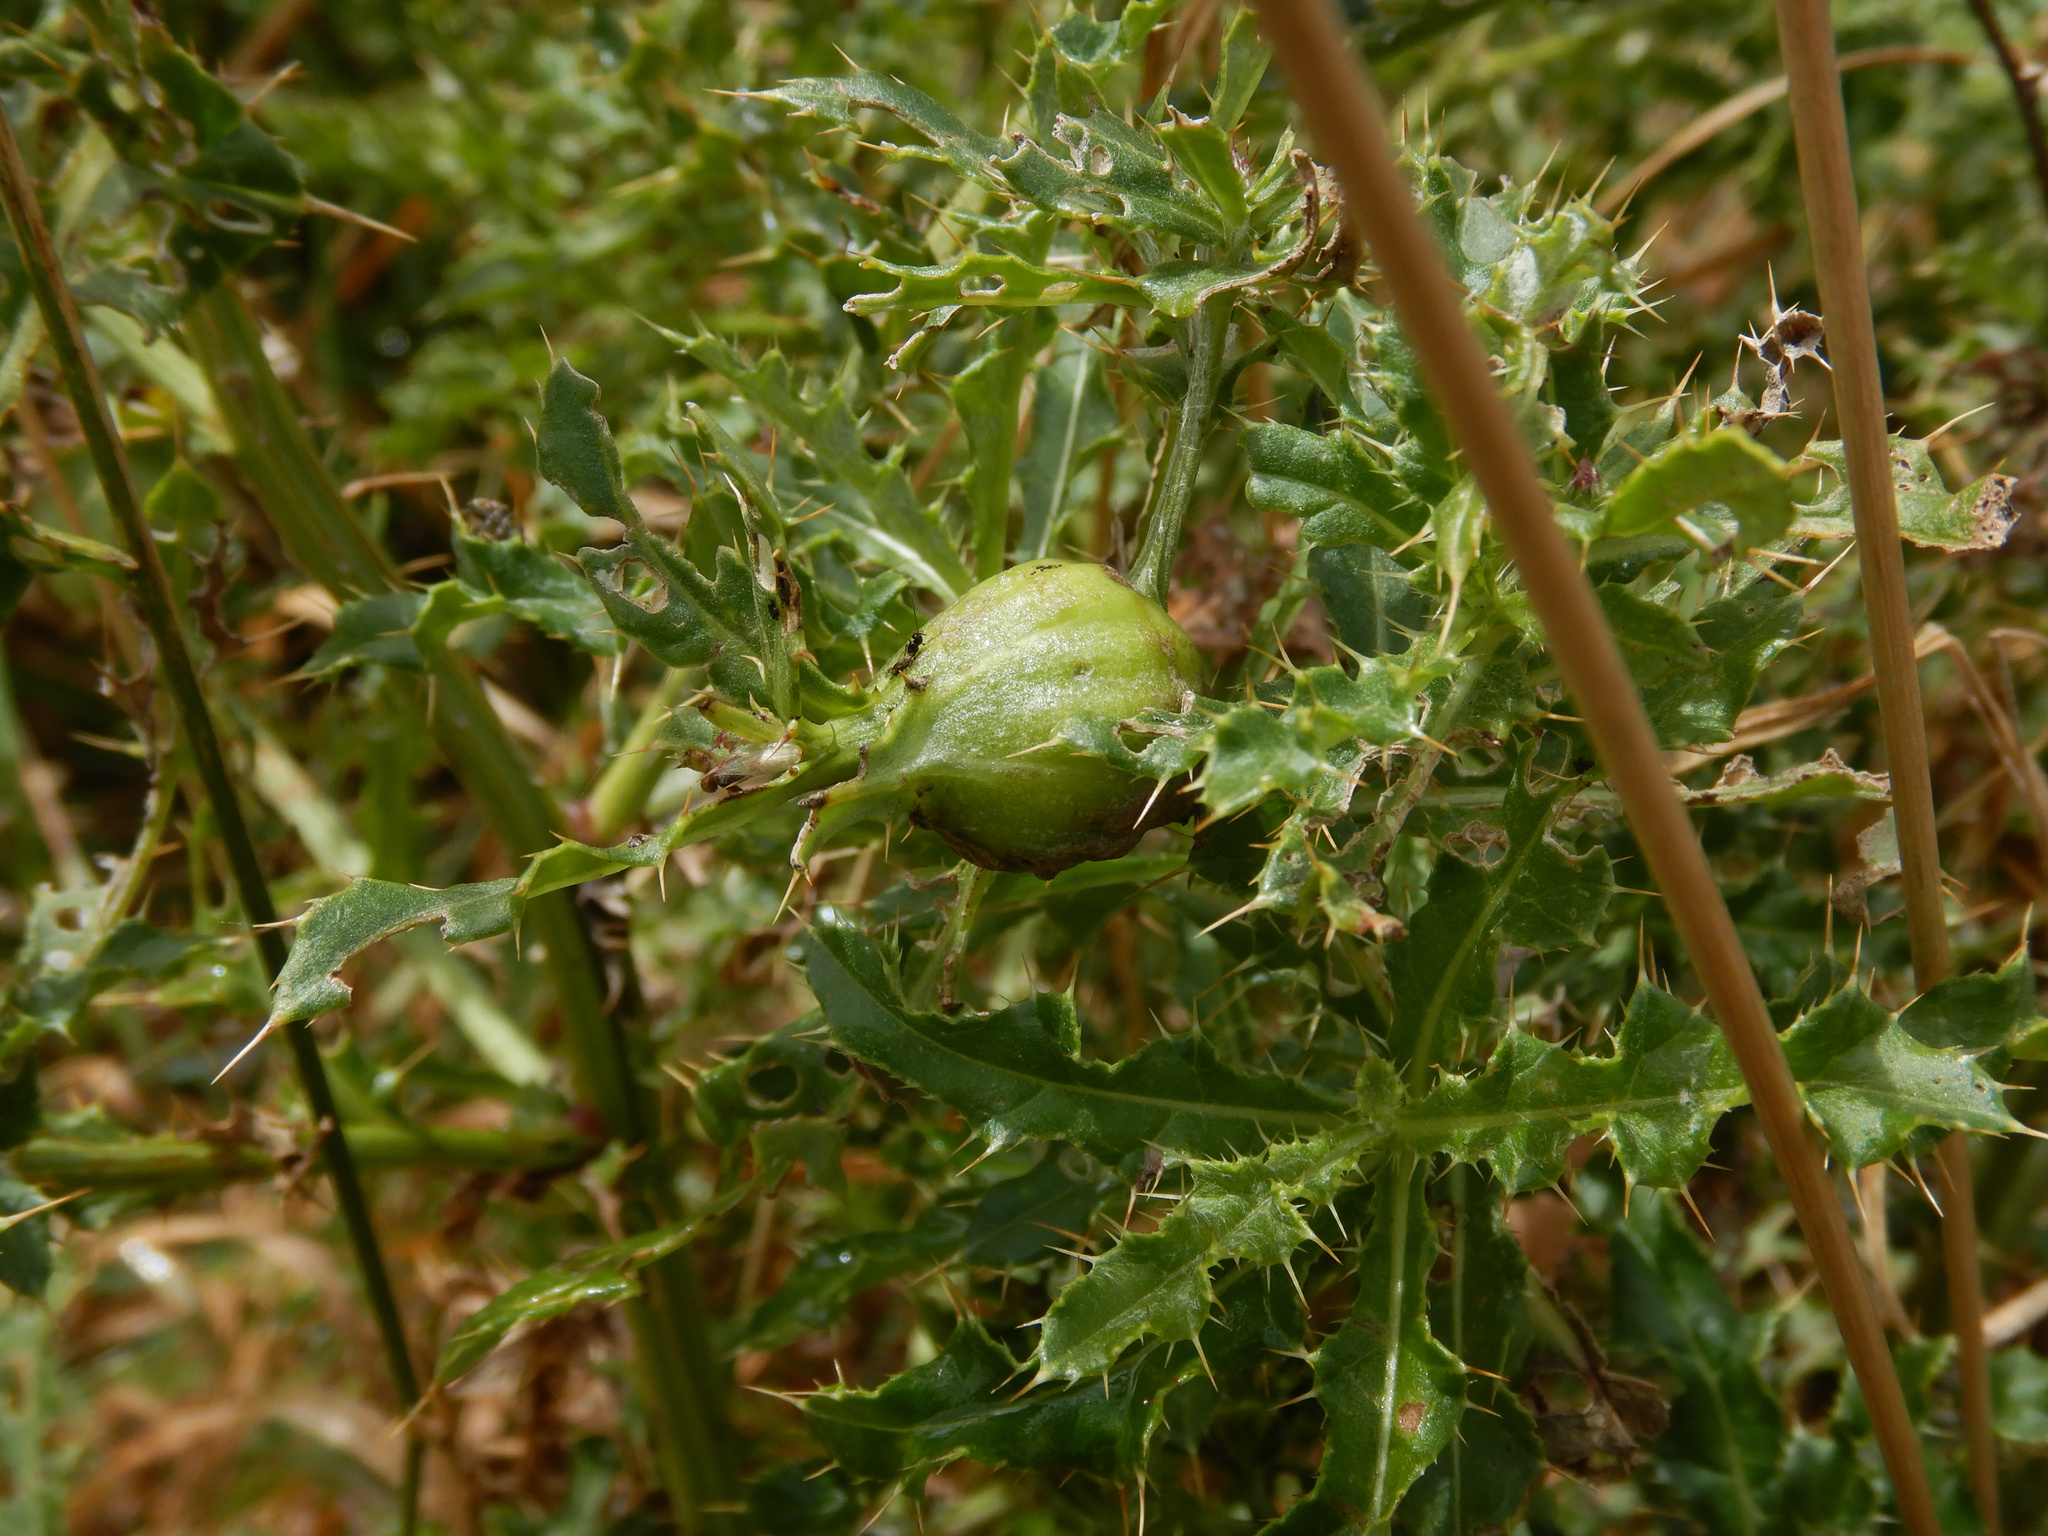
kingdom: Animalia
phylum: Arthropoda
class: Insecta
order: Diptera
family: Tephritidae
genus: Urophora
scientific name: Urophora cardui
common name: Fruit fly
